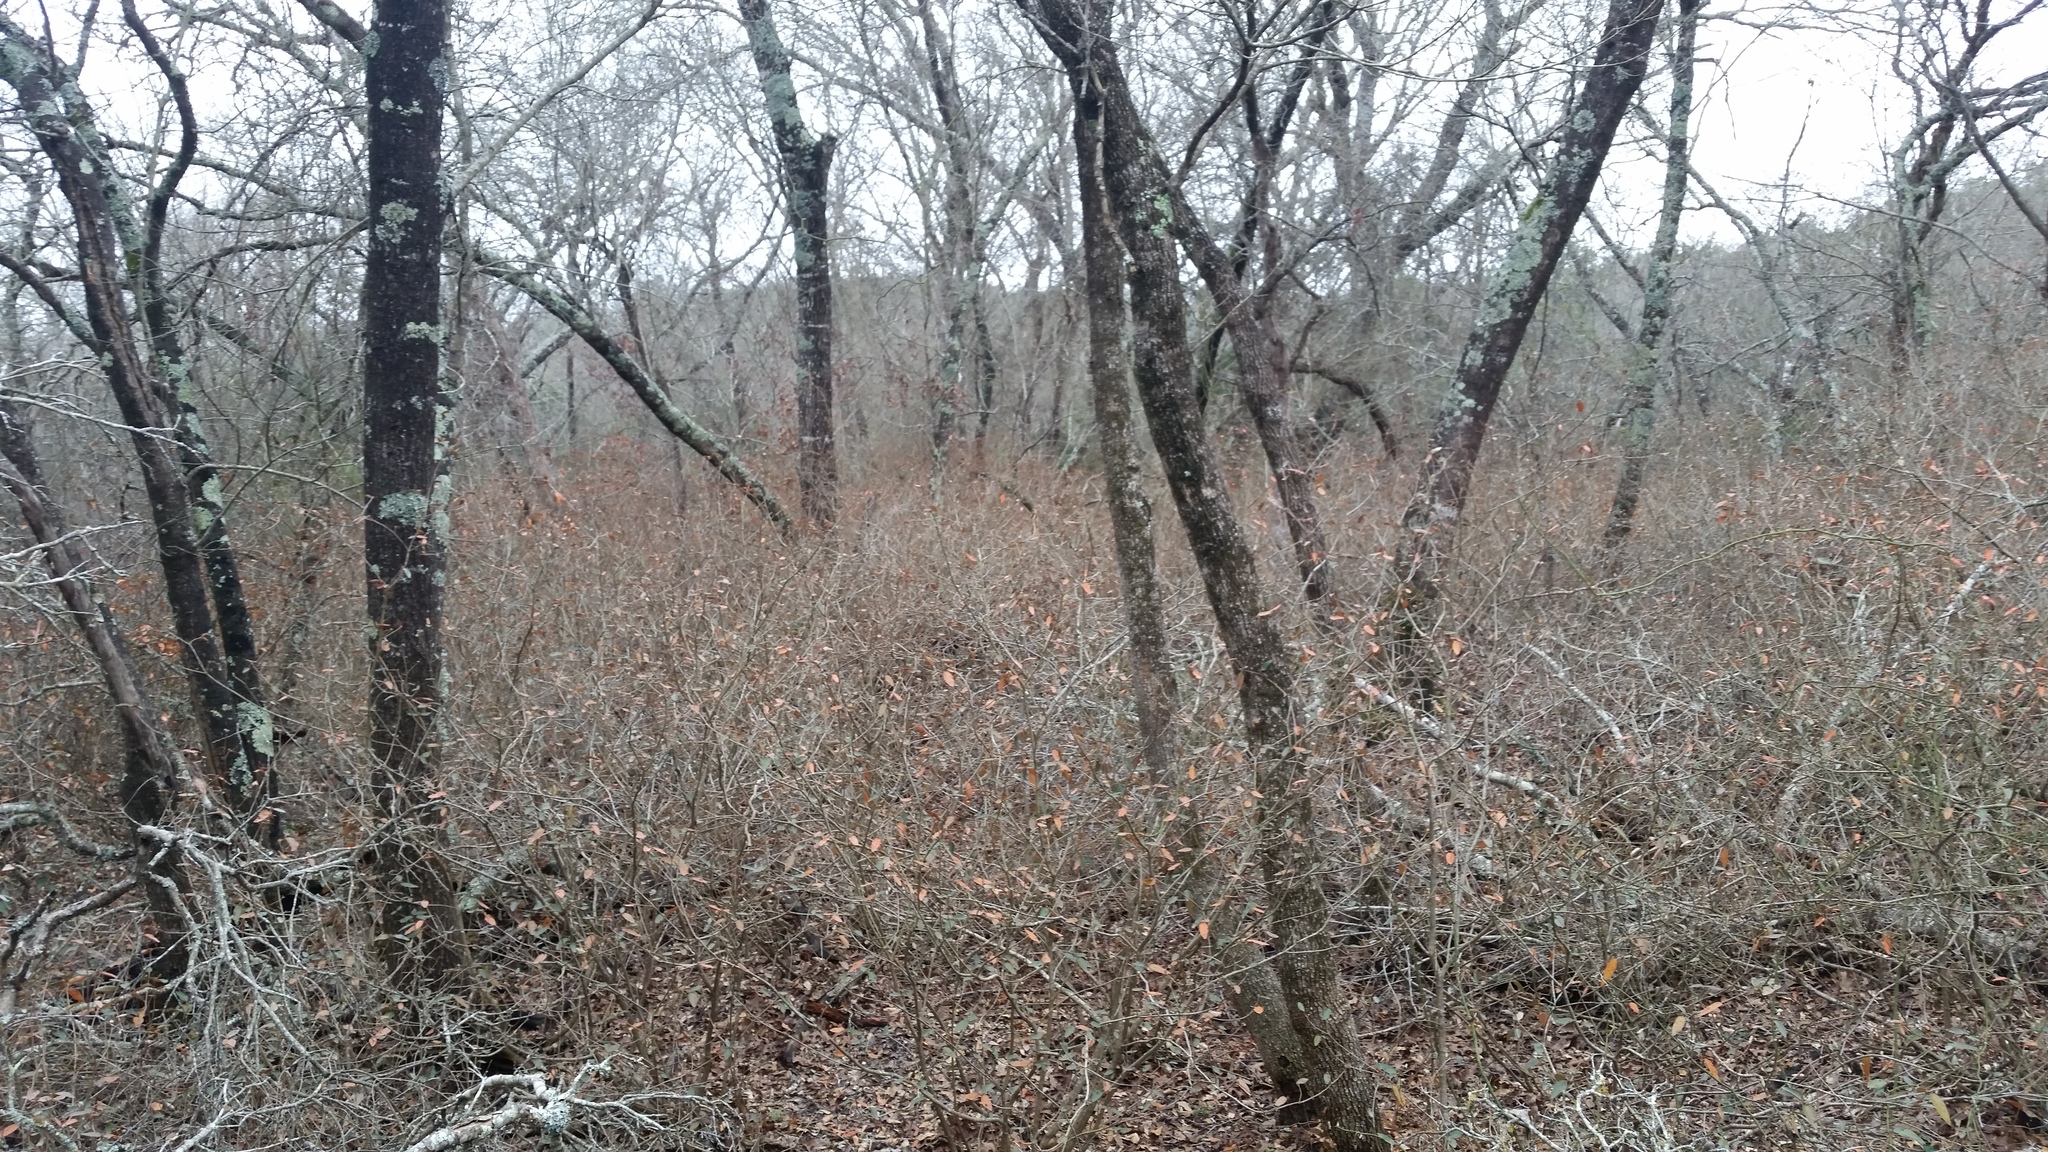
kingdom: Plantae
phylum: Tracheophyta
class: Magnoliopsida
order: Malpighiales
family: Euphorbiaceae
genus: Croton
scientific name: Croton alabamensis
